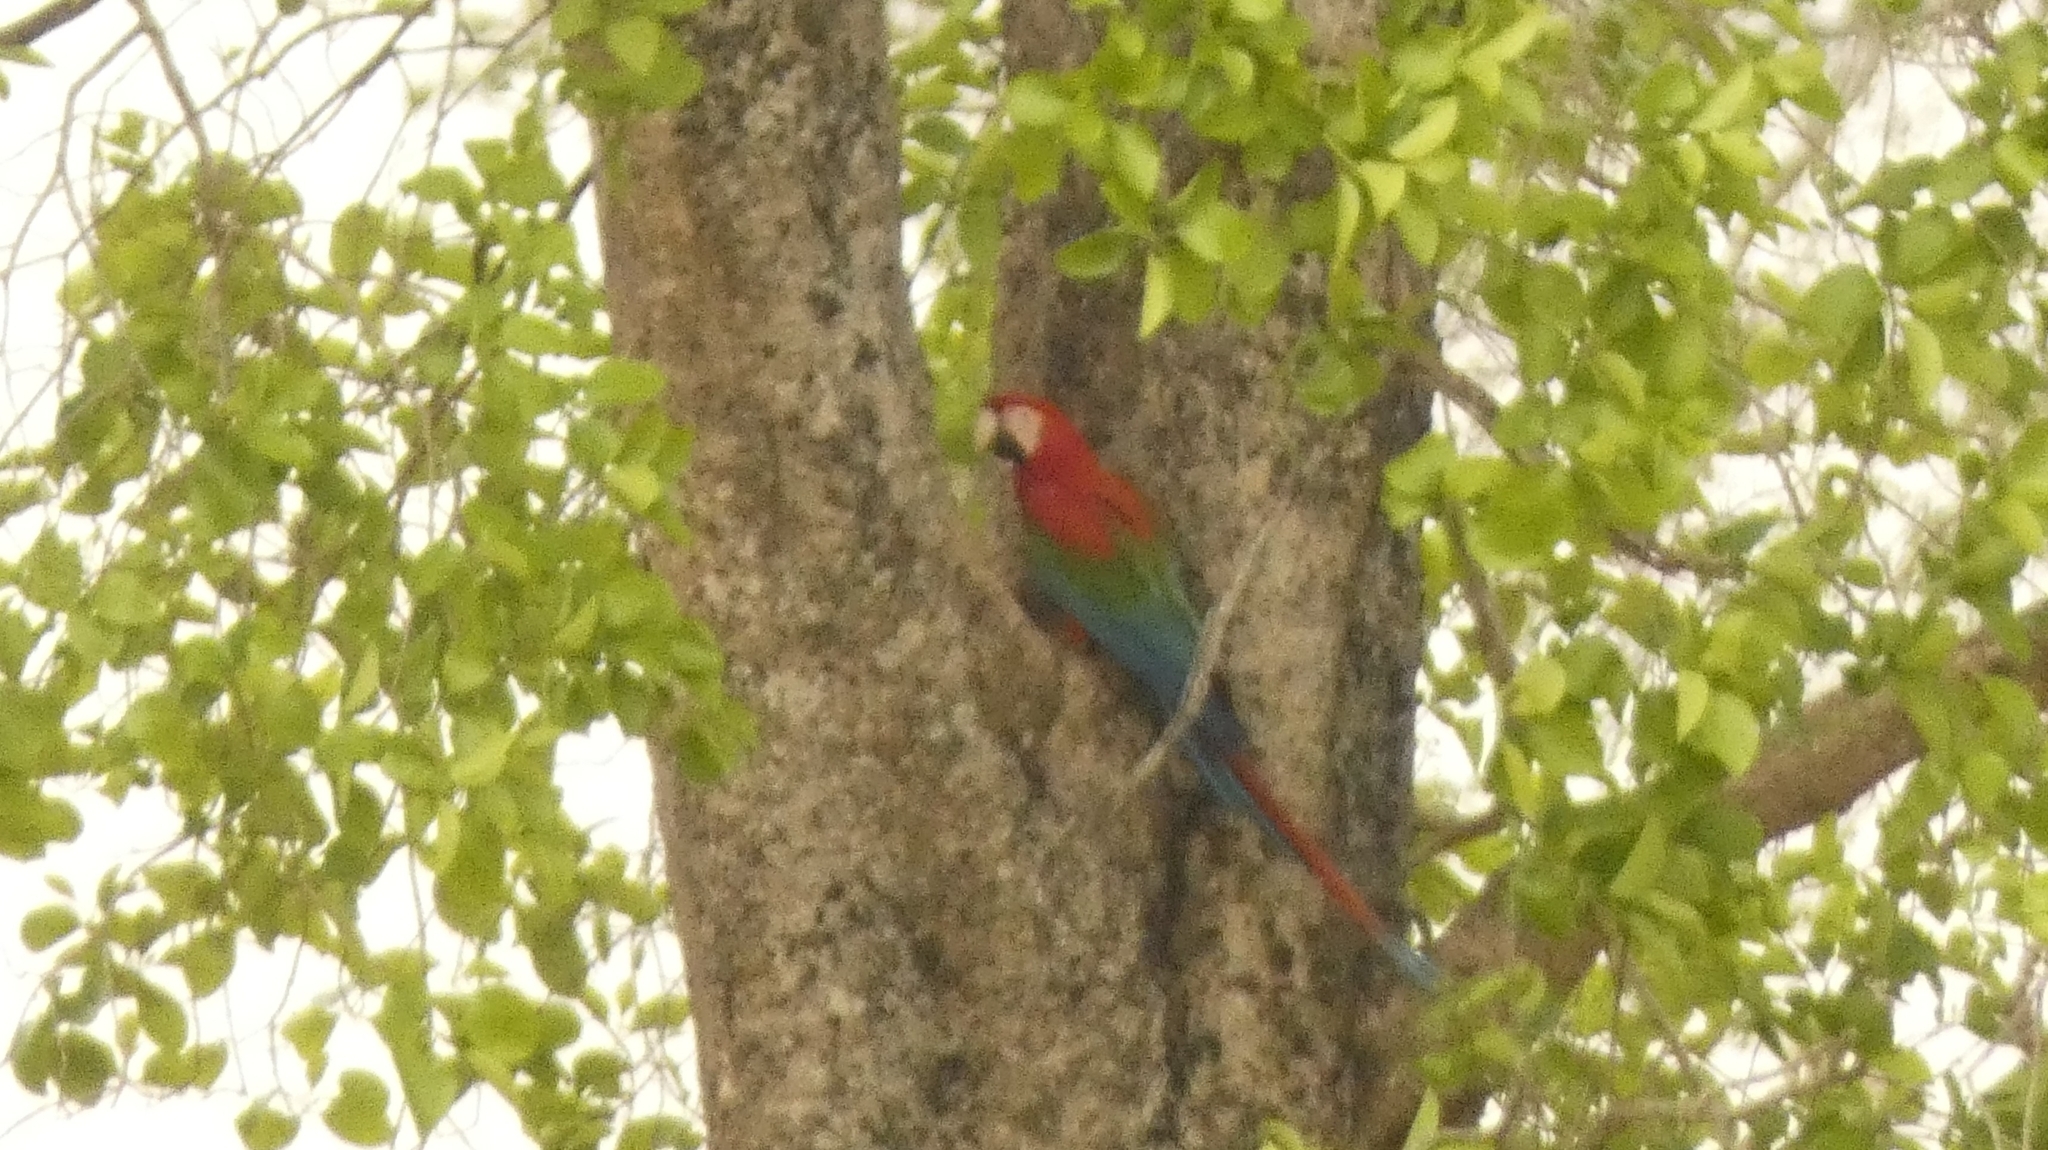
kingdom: Animalia
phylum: Chordata
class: Aves
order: Psittaciformes
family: Psittacidae
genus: Ara
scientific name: Ara chloropterus
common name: Red-and-green macaw
